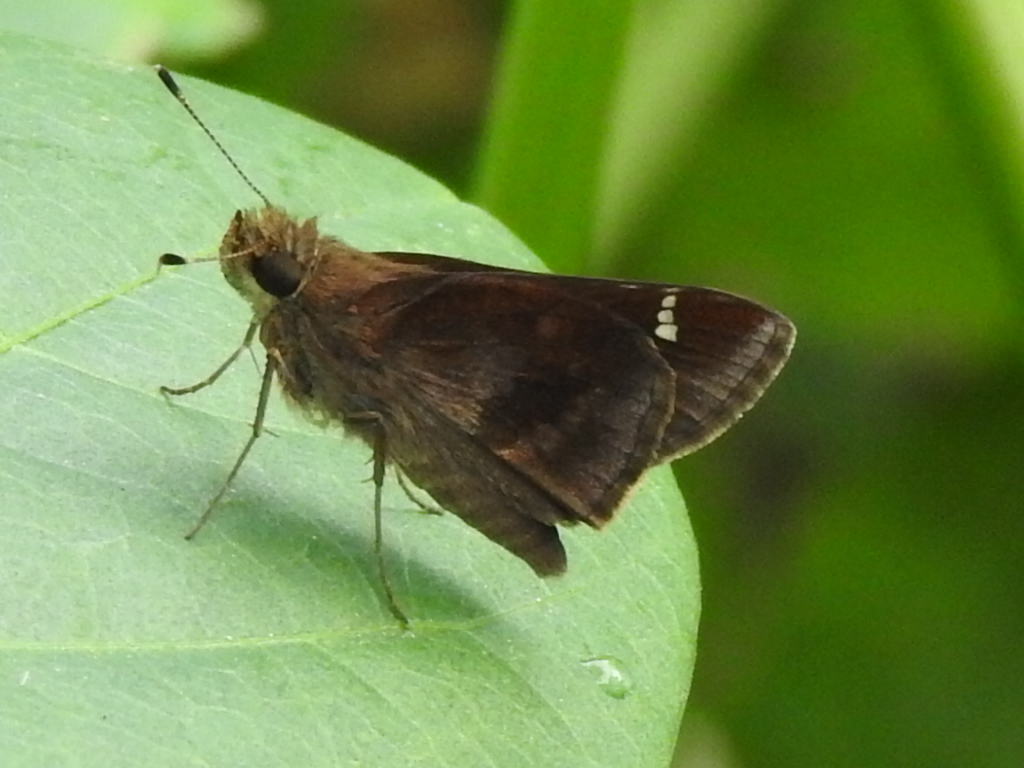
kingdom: Animalia
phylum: Arthropoda
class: Insecta
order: Lepidoptera
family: Hesperiidae
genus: Lerema
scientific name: Lerema accius
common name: Clouded skipper
